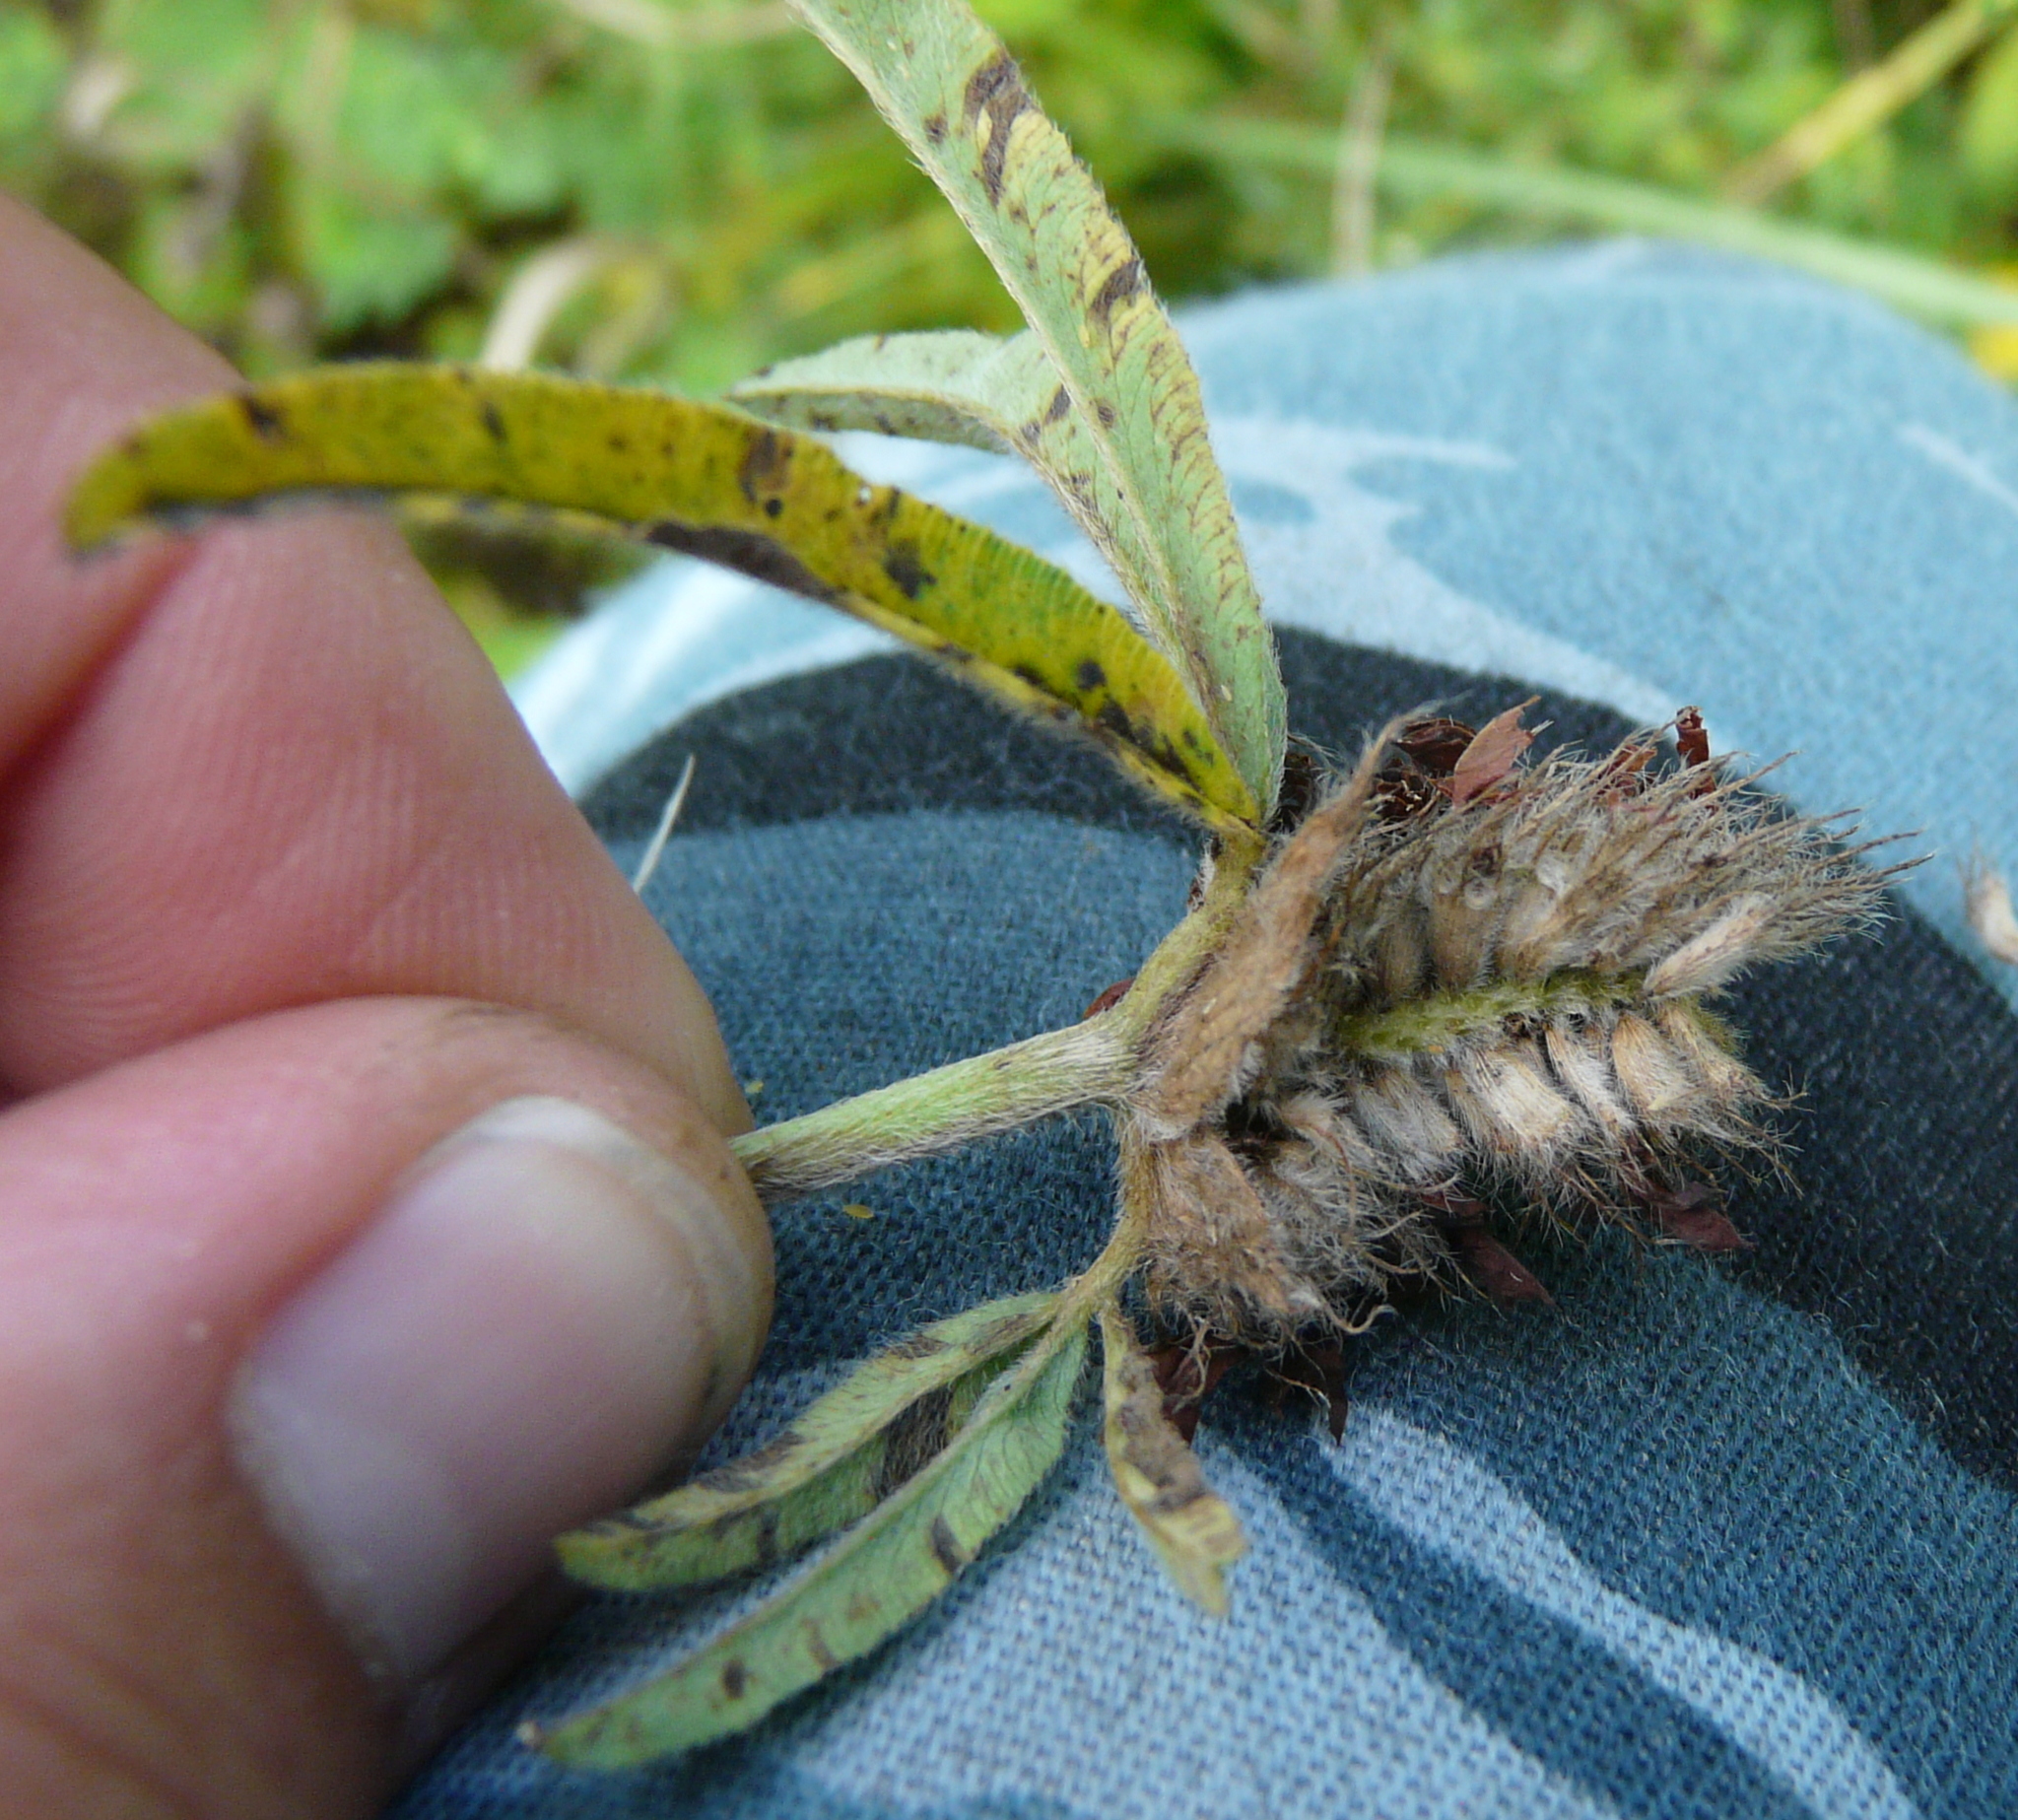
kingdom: Plantae
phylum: Tracheophyta
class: Magnoliopsida
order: Fabales
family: Fabaceae
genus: Trifolium
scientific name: Trifolium alpestre
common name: Owl-head clover
